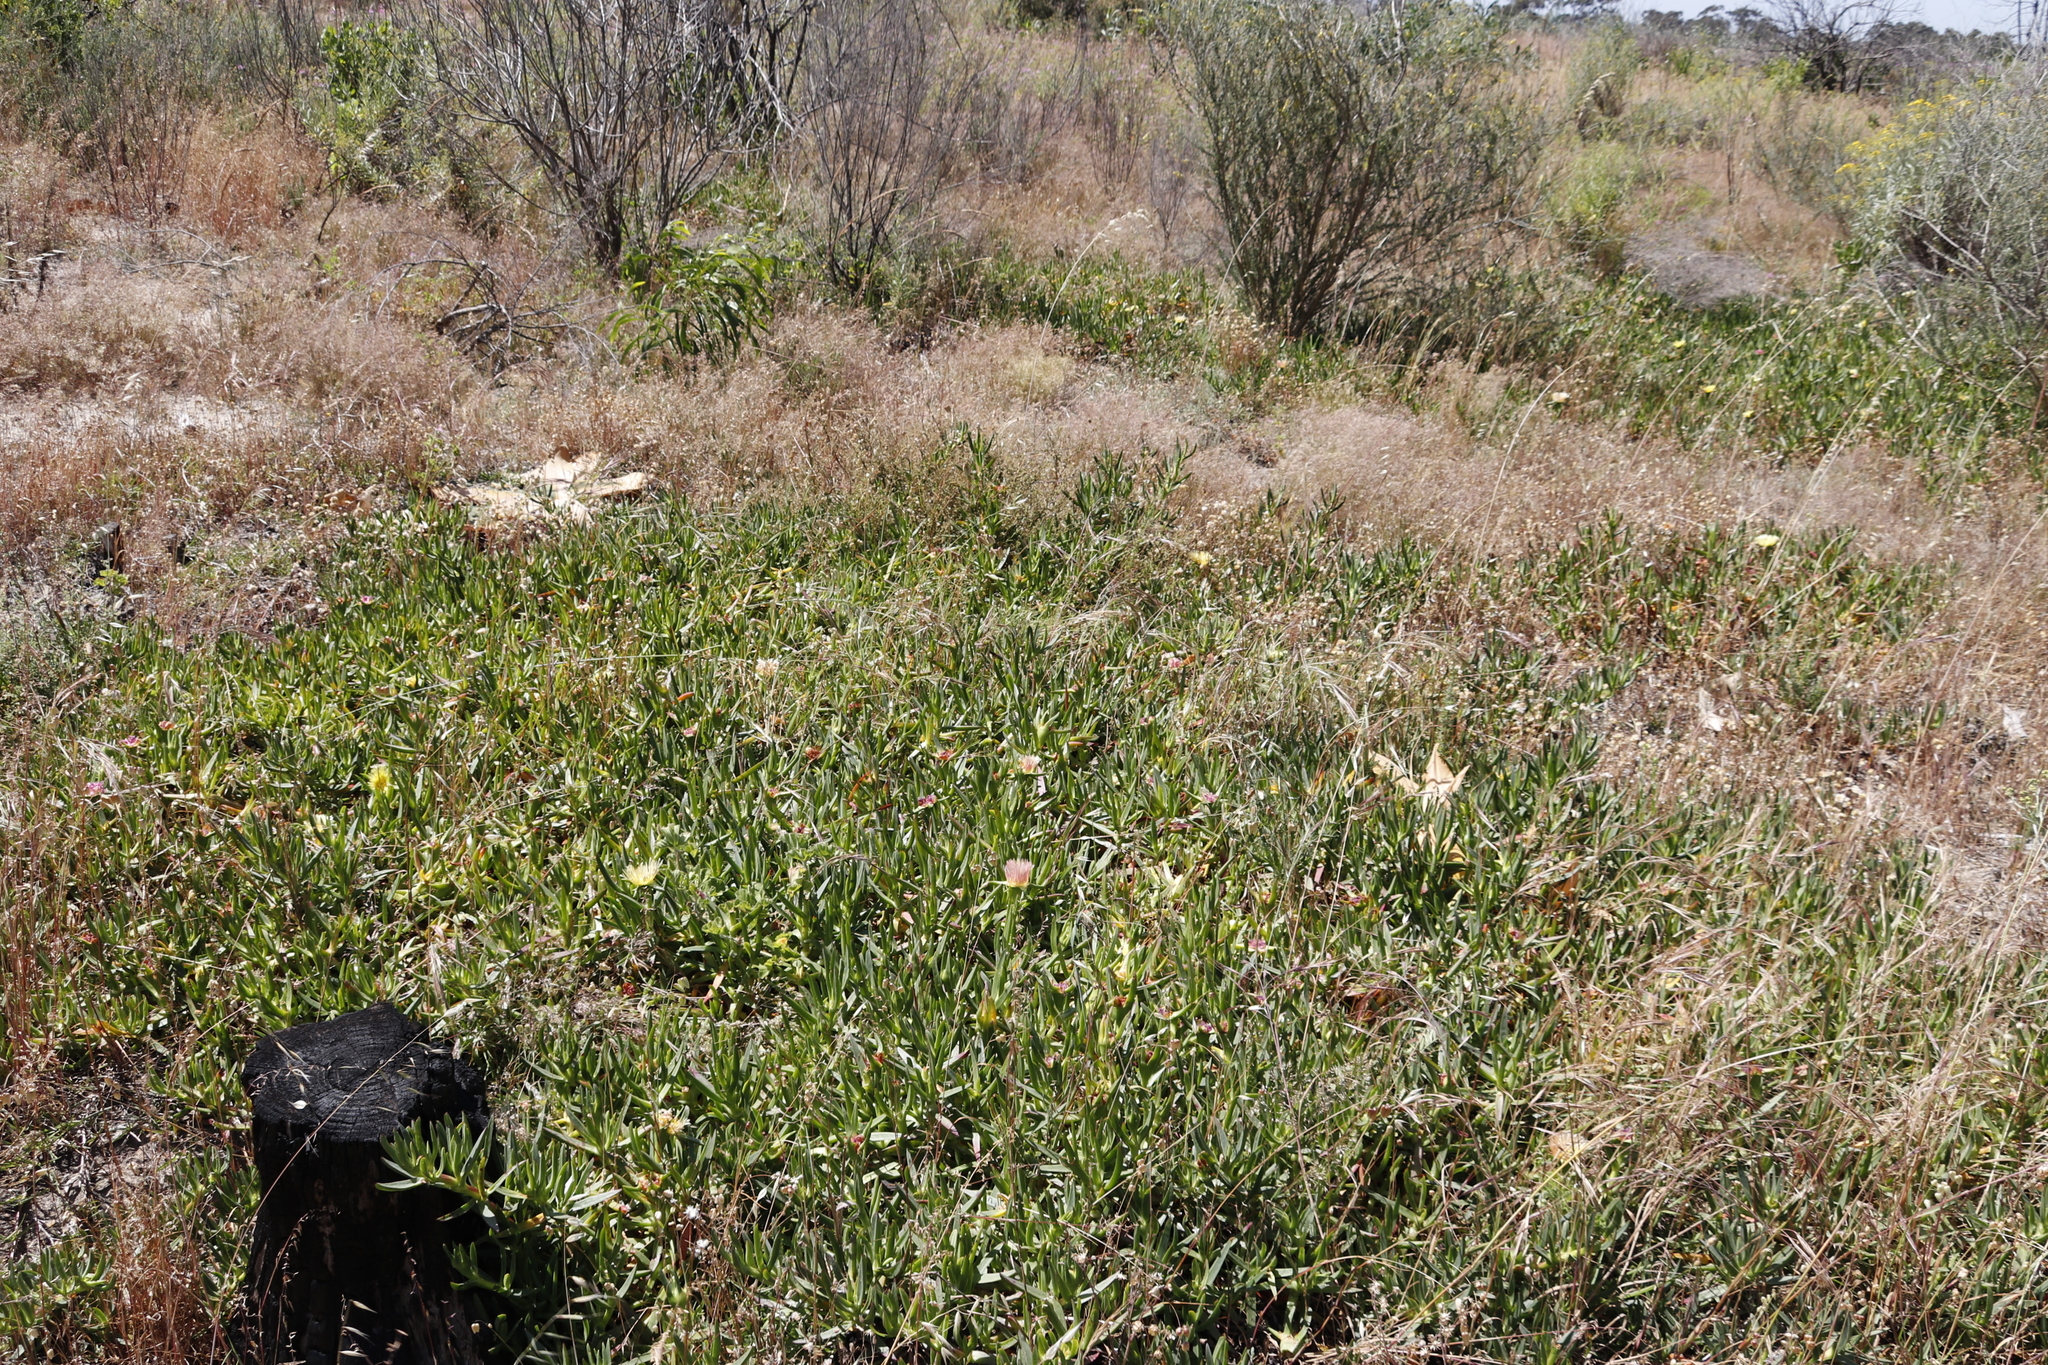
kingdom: Plantae
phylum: Tracheophyta
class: Magnoliopsida
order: Caryophyllales
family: Aizoaceae
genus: Carpobrotus
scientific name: Carpobrotus edulis
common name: Hottentot-fig
